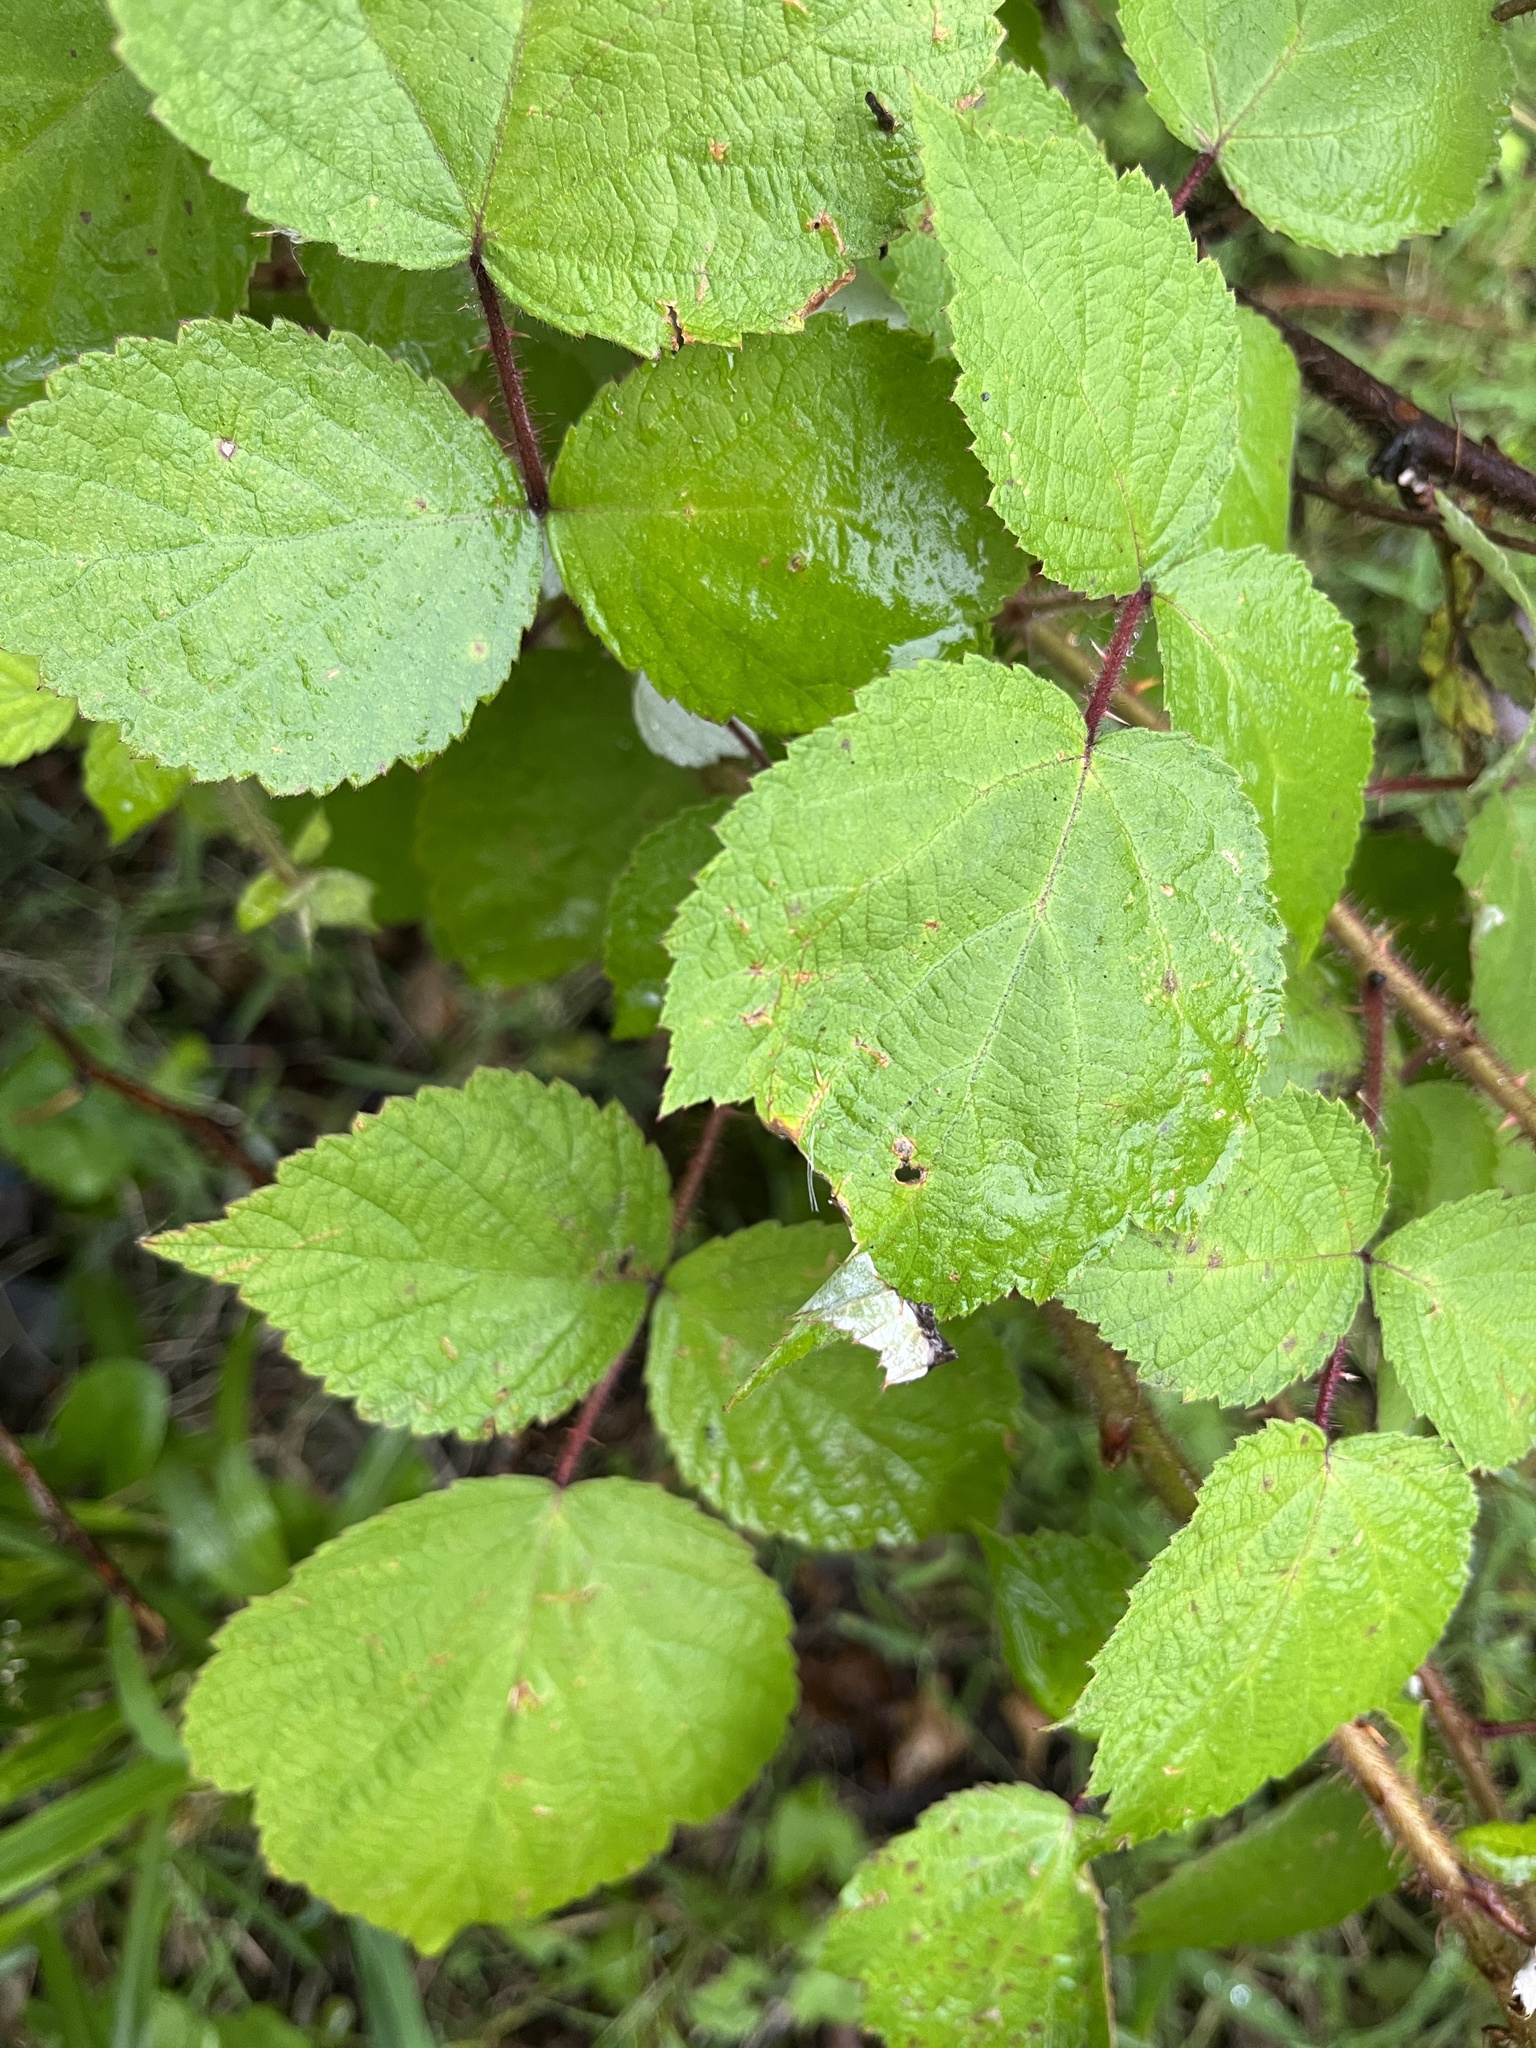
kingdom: Plantae
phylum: Tracheophyta
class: Magnoliopsida
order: Rosales
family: Rosaceae
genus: Rubus
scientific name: Rubus phoenicolasius
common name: Japanese wineberry
